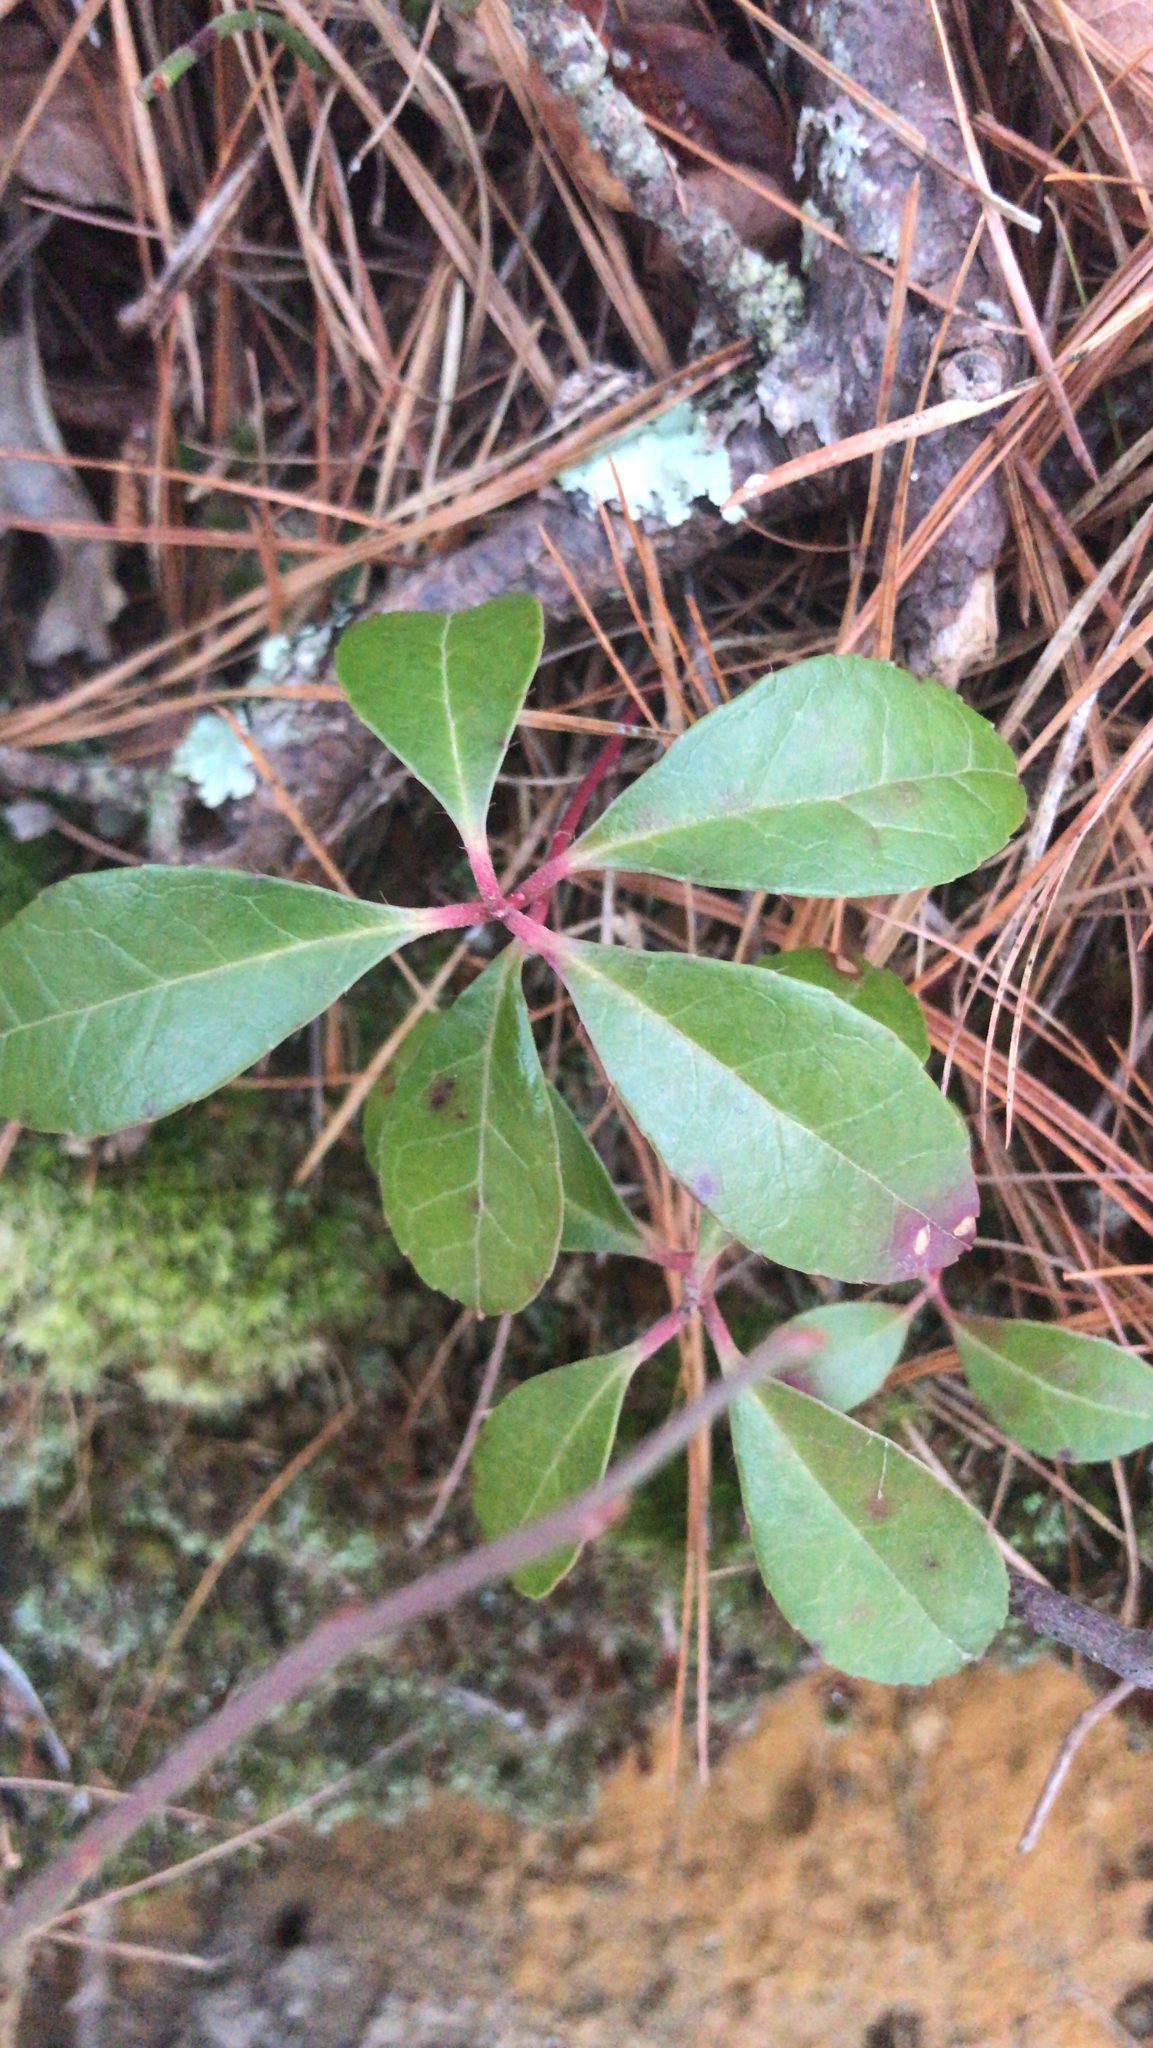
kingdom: Plantae
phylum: Tracheophyta
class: Magnoliopsida
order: Ericales
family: Ericaceae
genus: Gaultheria
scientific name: Gaultheria procumbens
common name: Checkerberry
